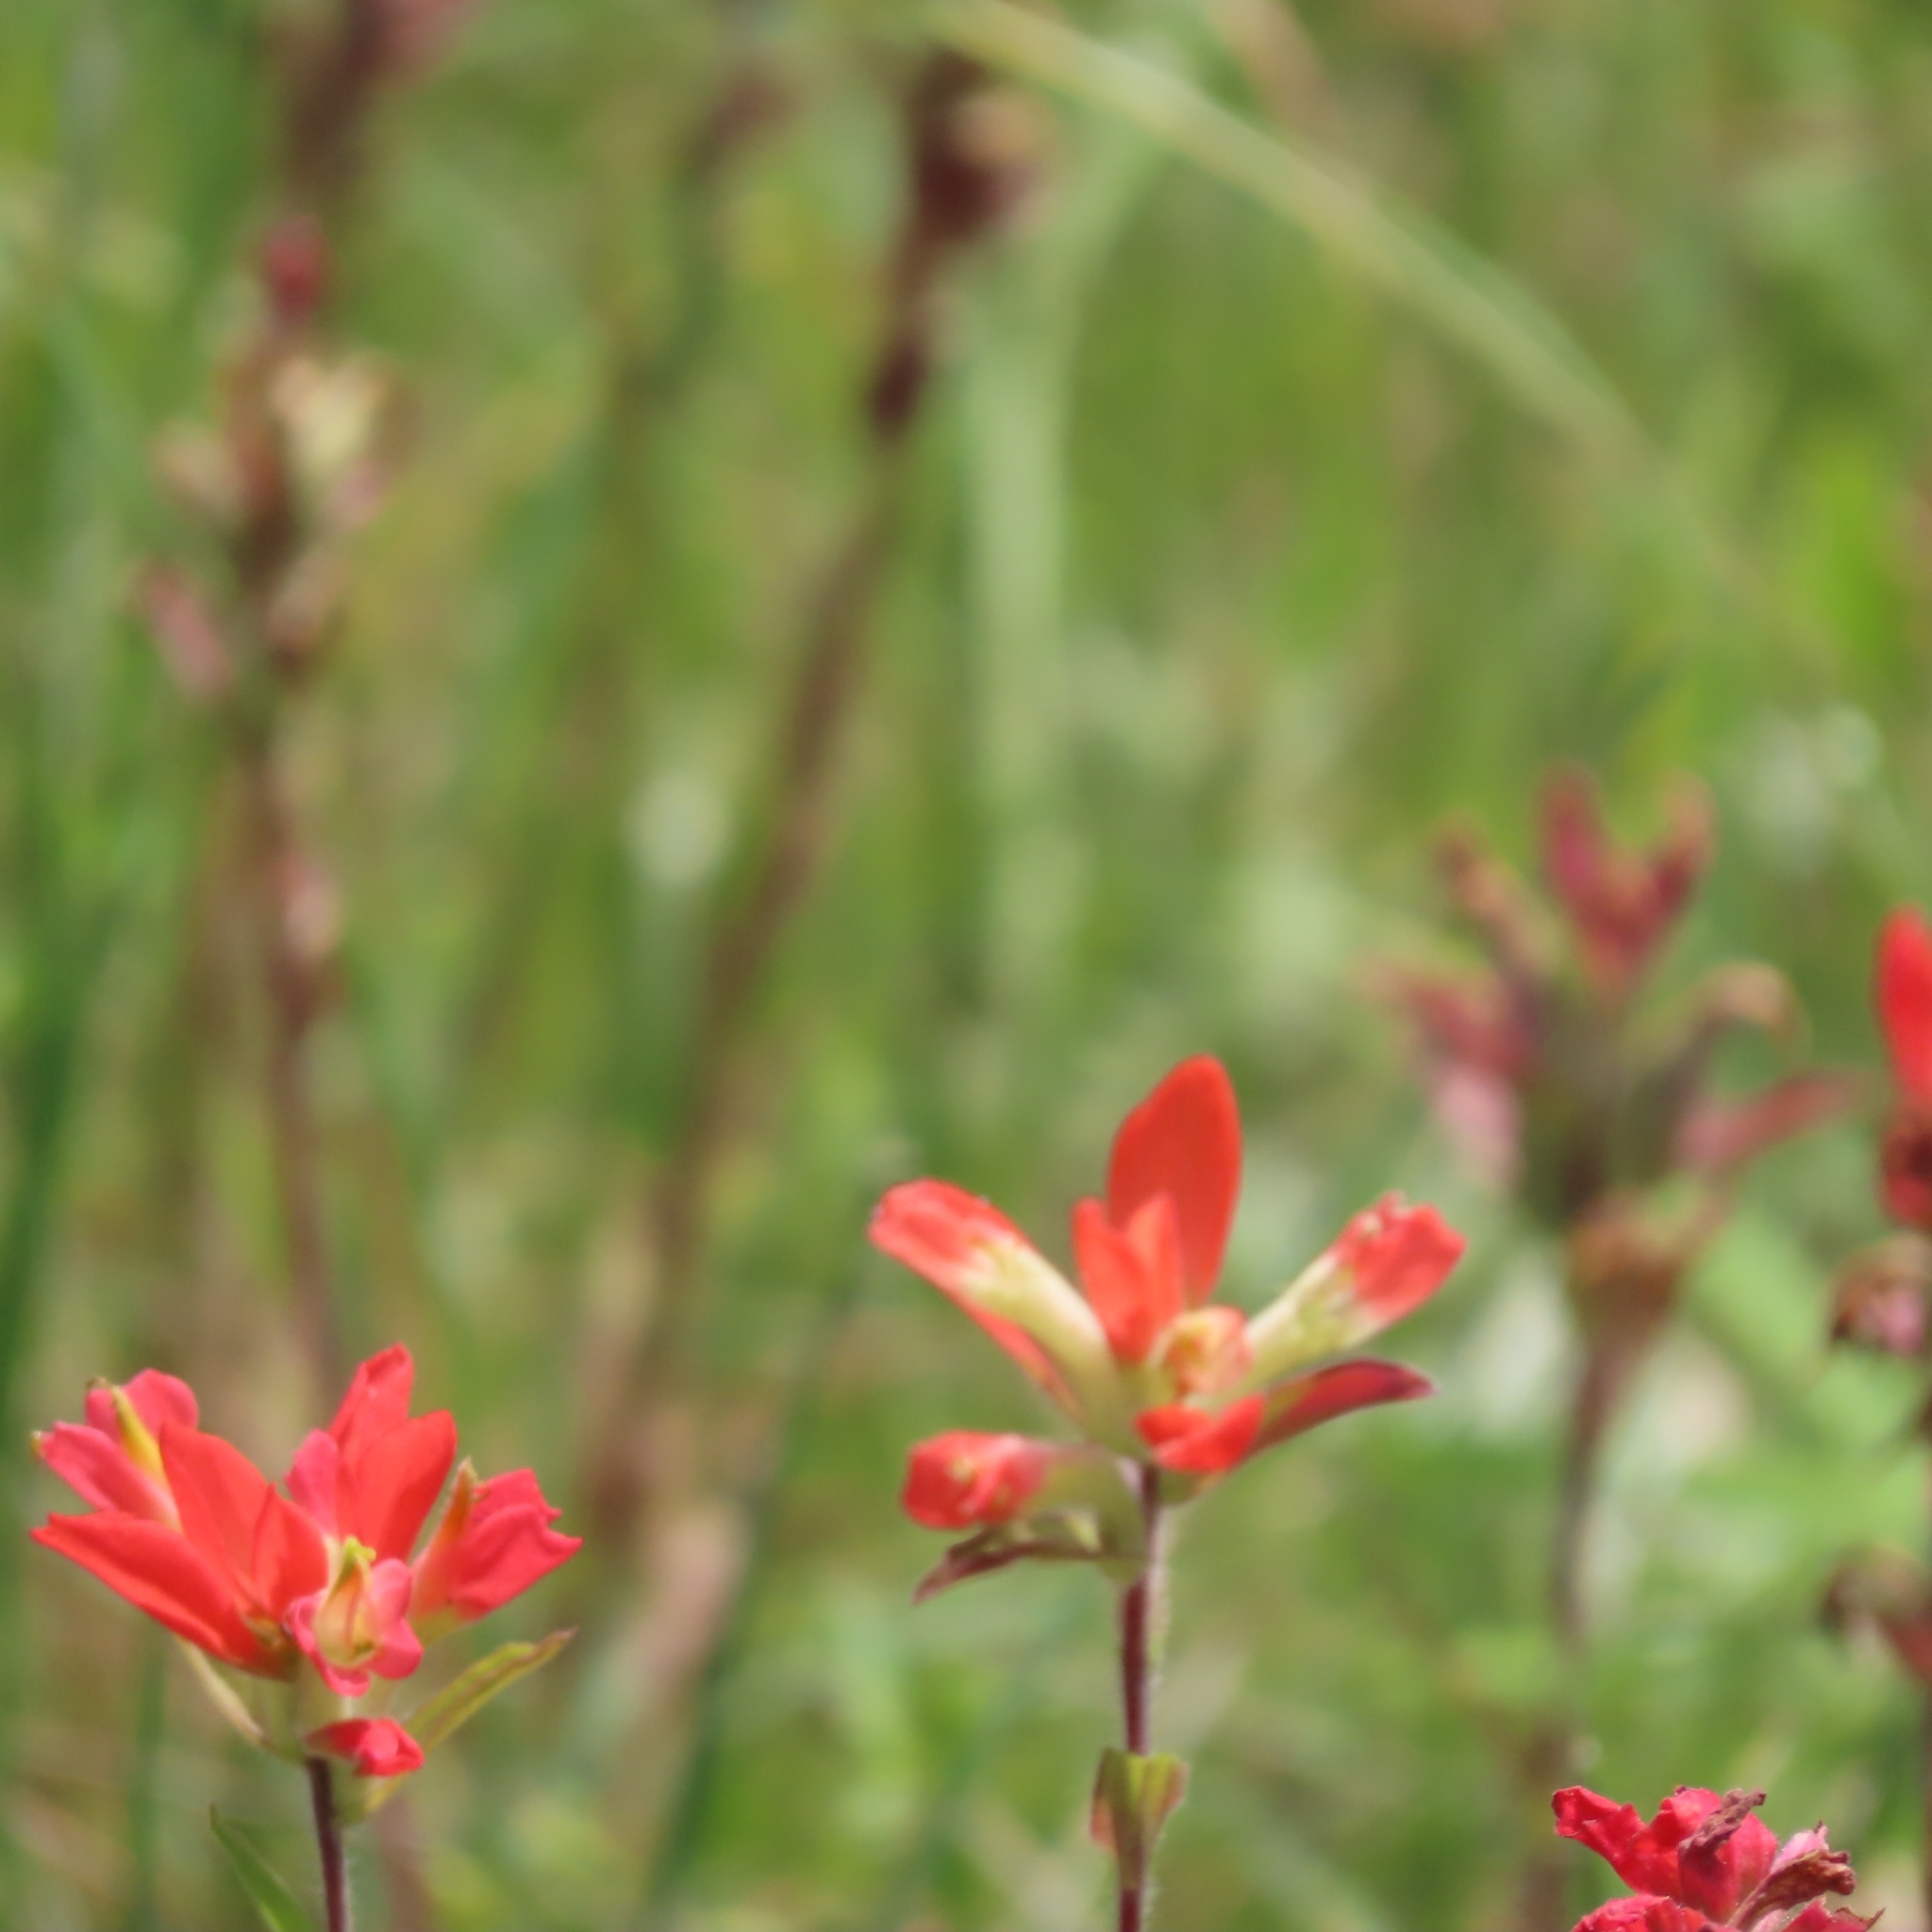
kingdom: Plantae
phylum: Tracheophyta
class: Magnoliopsida
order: Lamiales
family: Orobanchaceae
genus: Castilleja
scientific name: Castilleja indivisa
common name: Texas paintbrush
